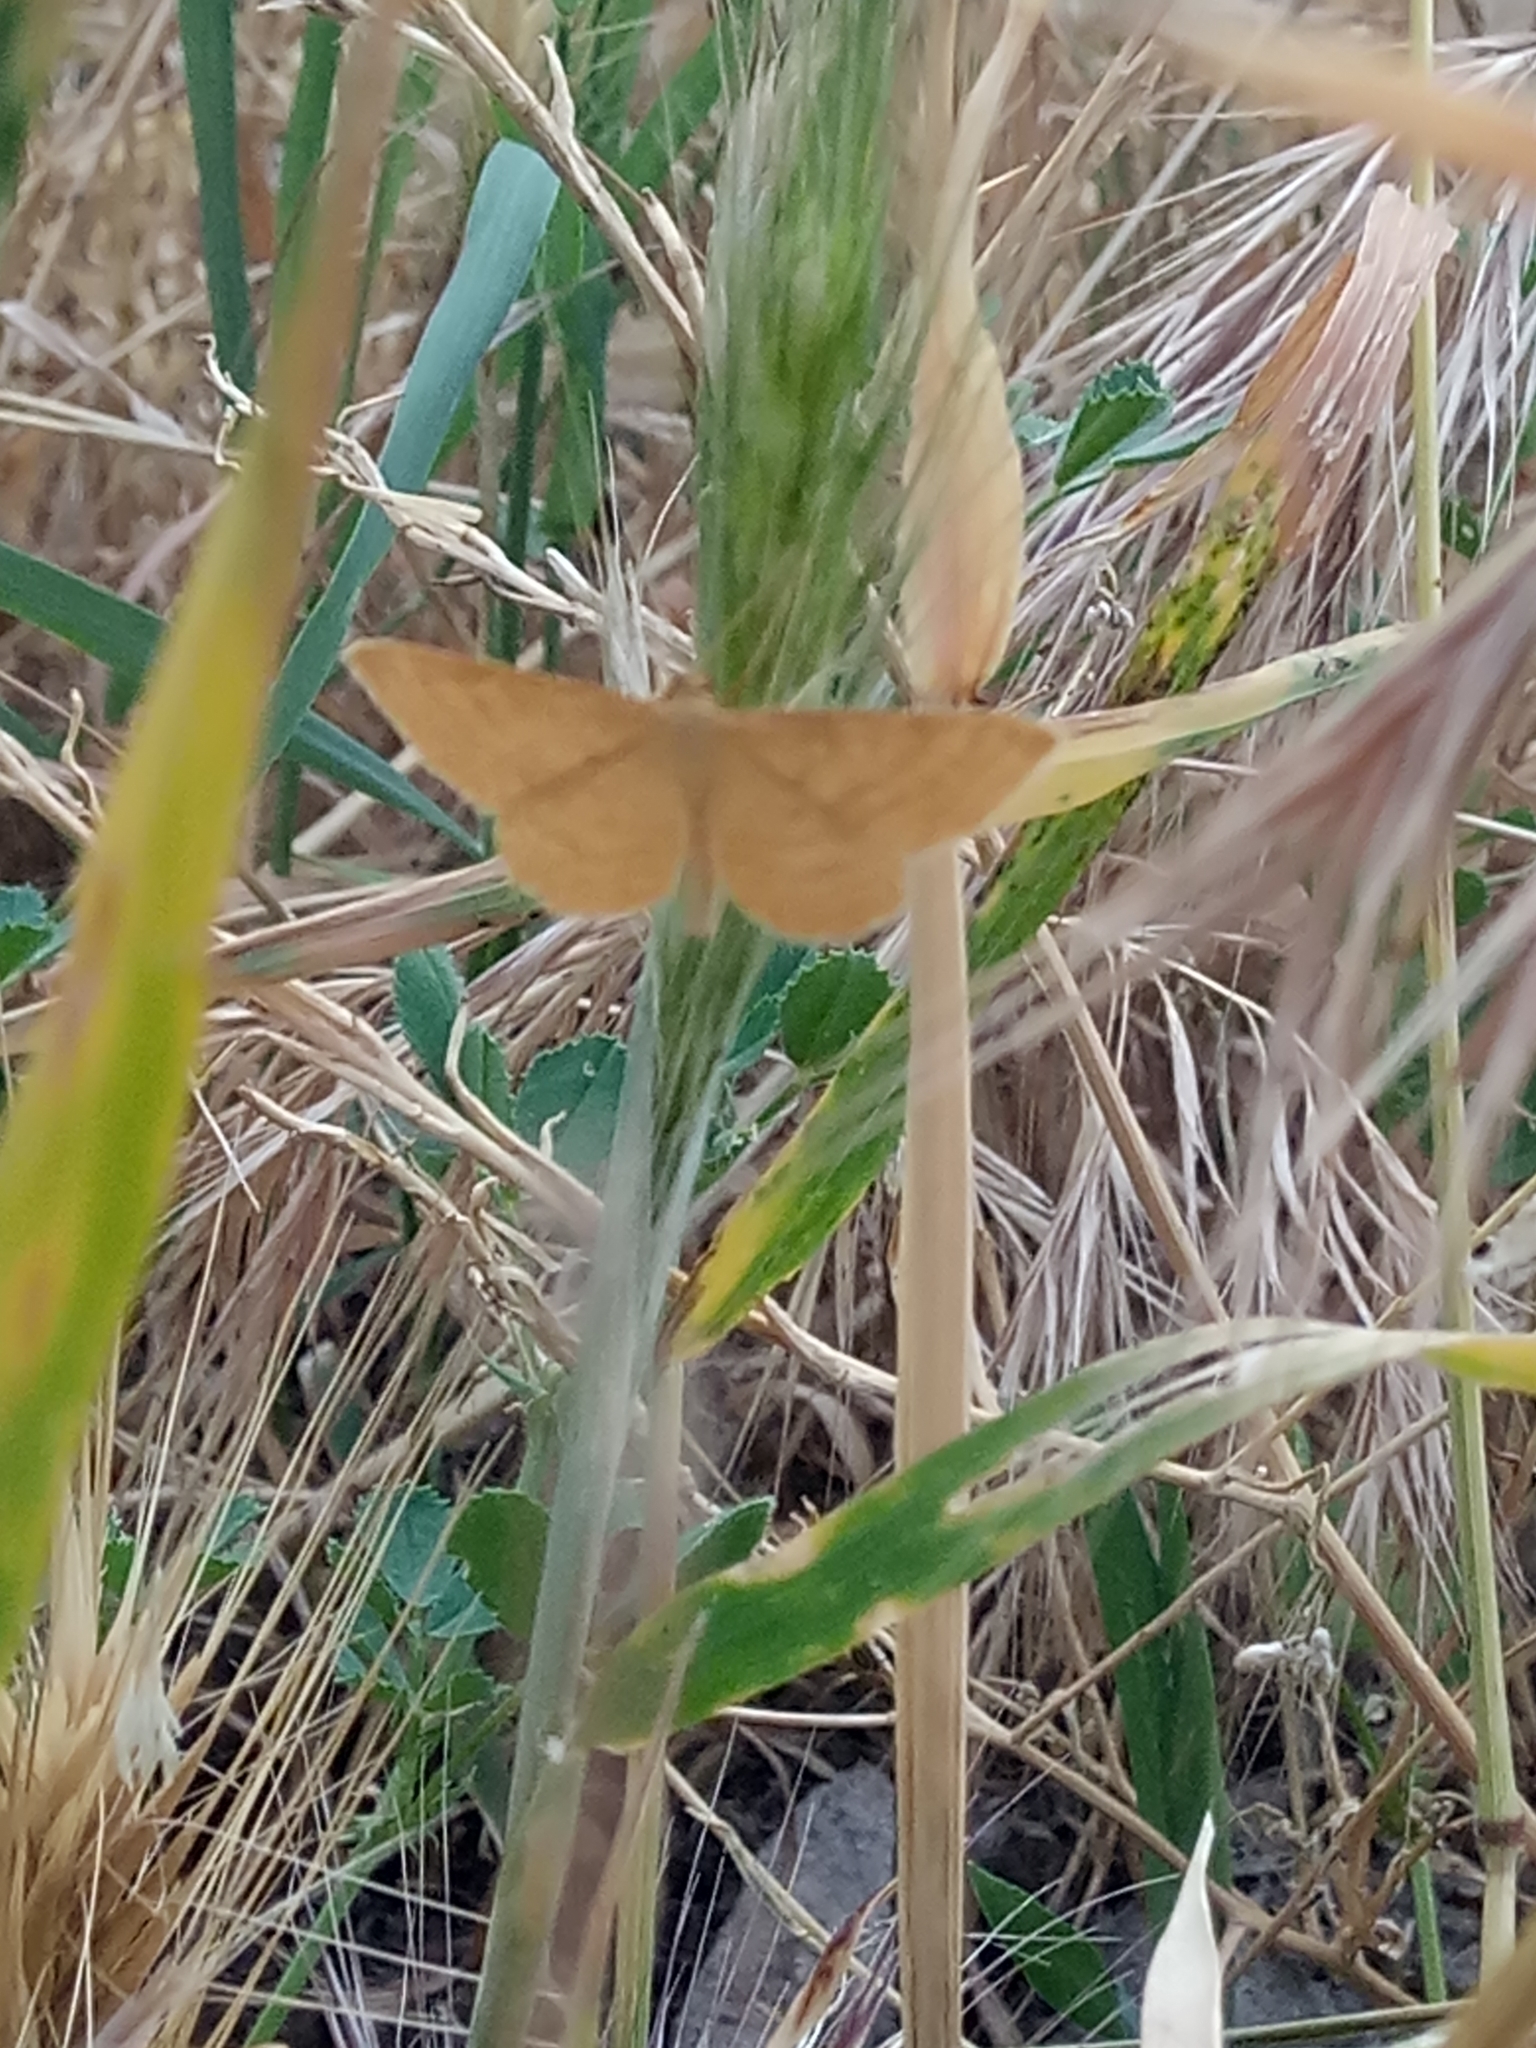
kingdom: Animalia
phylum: Arthropoda
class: Insecta
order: Lepidoptera
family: Geometridae
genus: Idaea
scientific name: Idaea ochrata
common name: Bright wave
